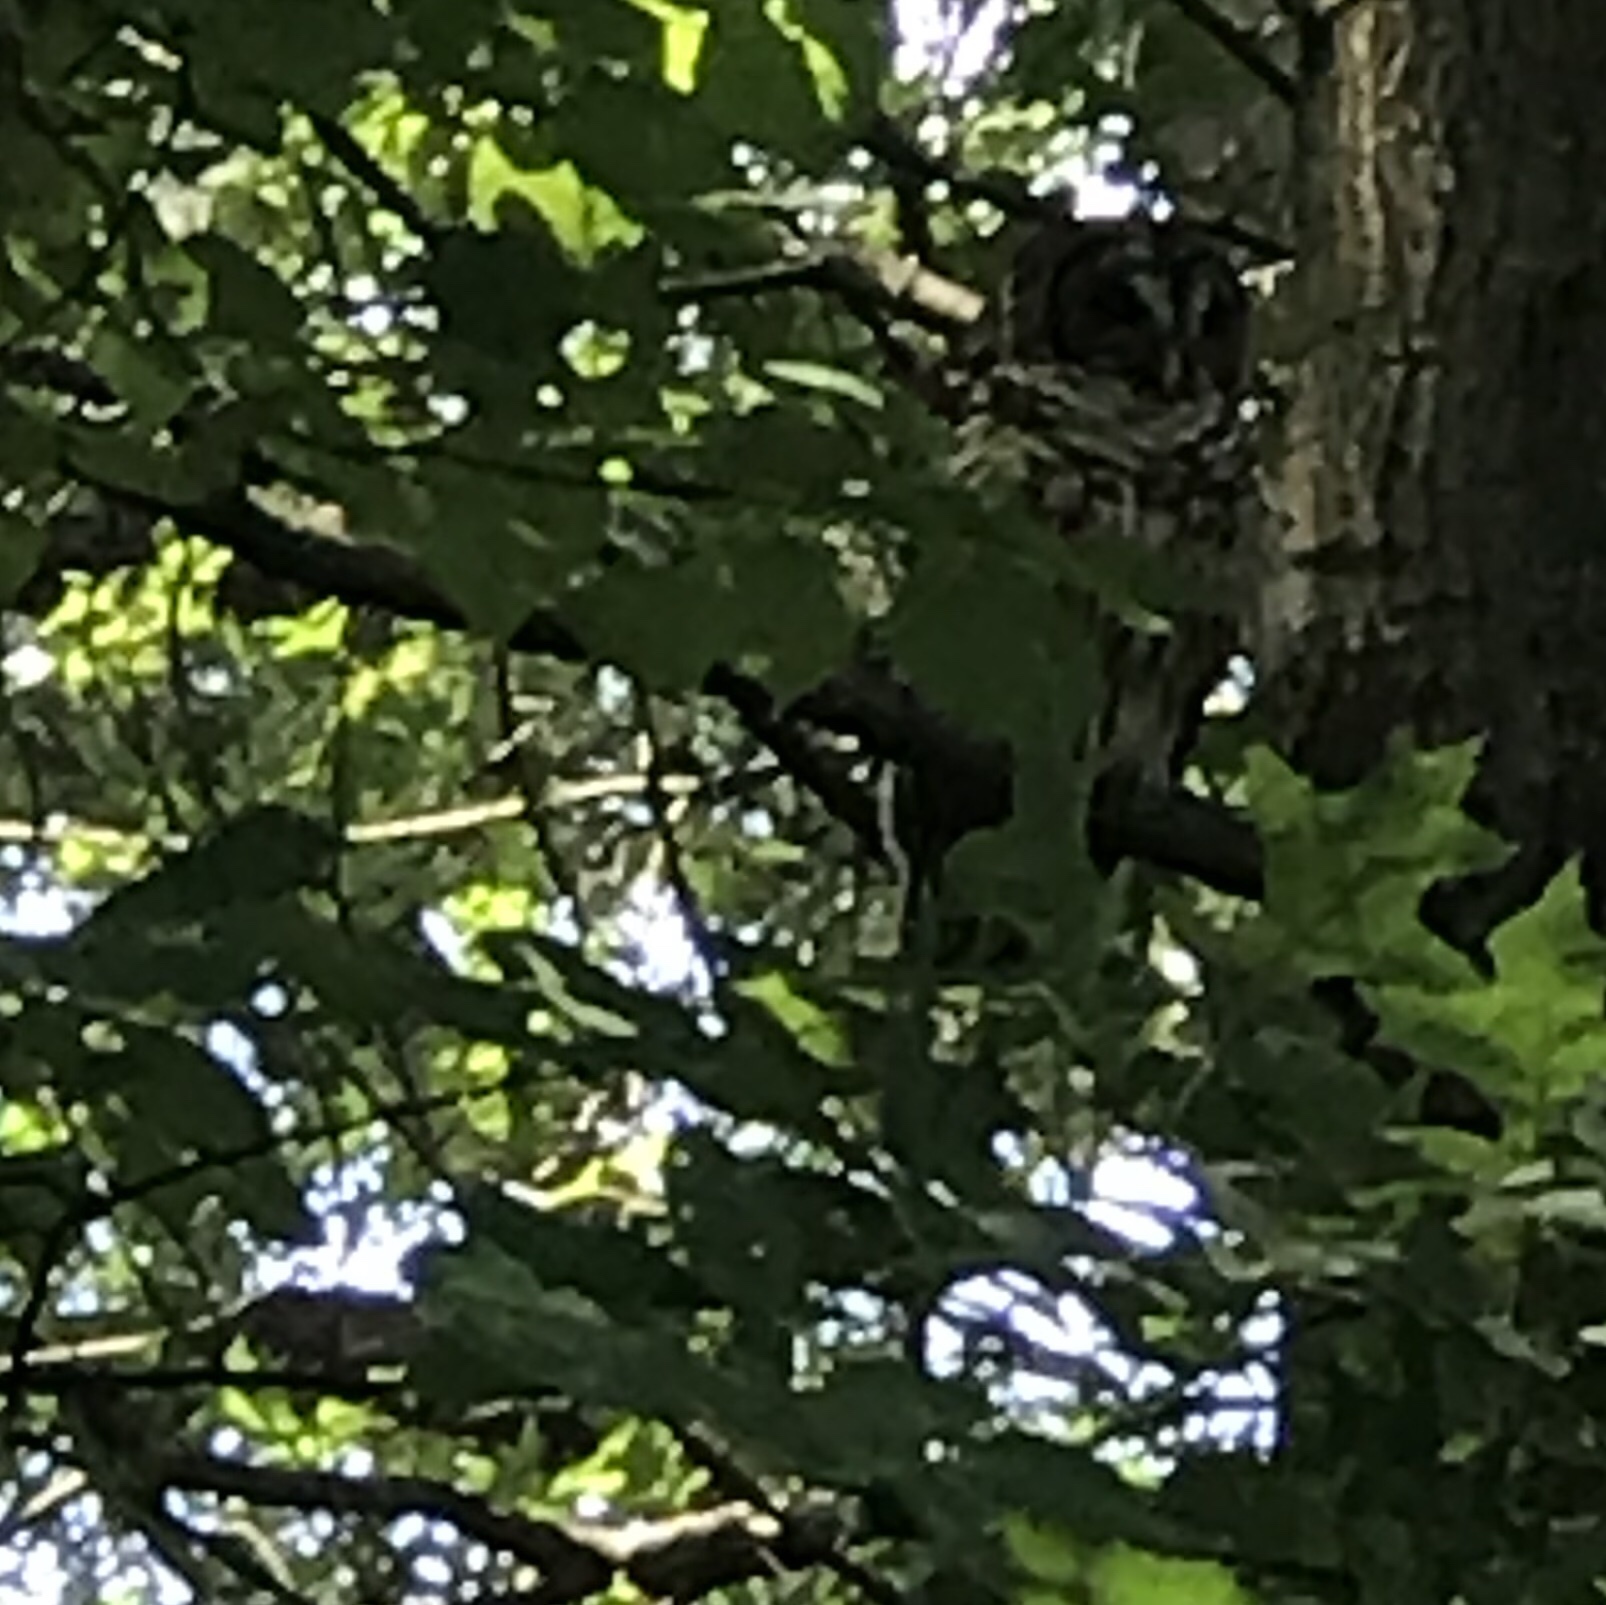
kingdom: Animalia
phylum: Chordata
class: Aves
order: Strigiformes
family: Strigidae
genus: Strix
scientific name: Strix varia
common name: Barred owl
